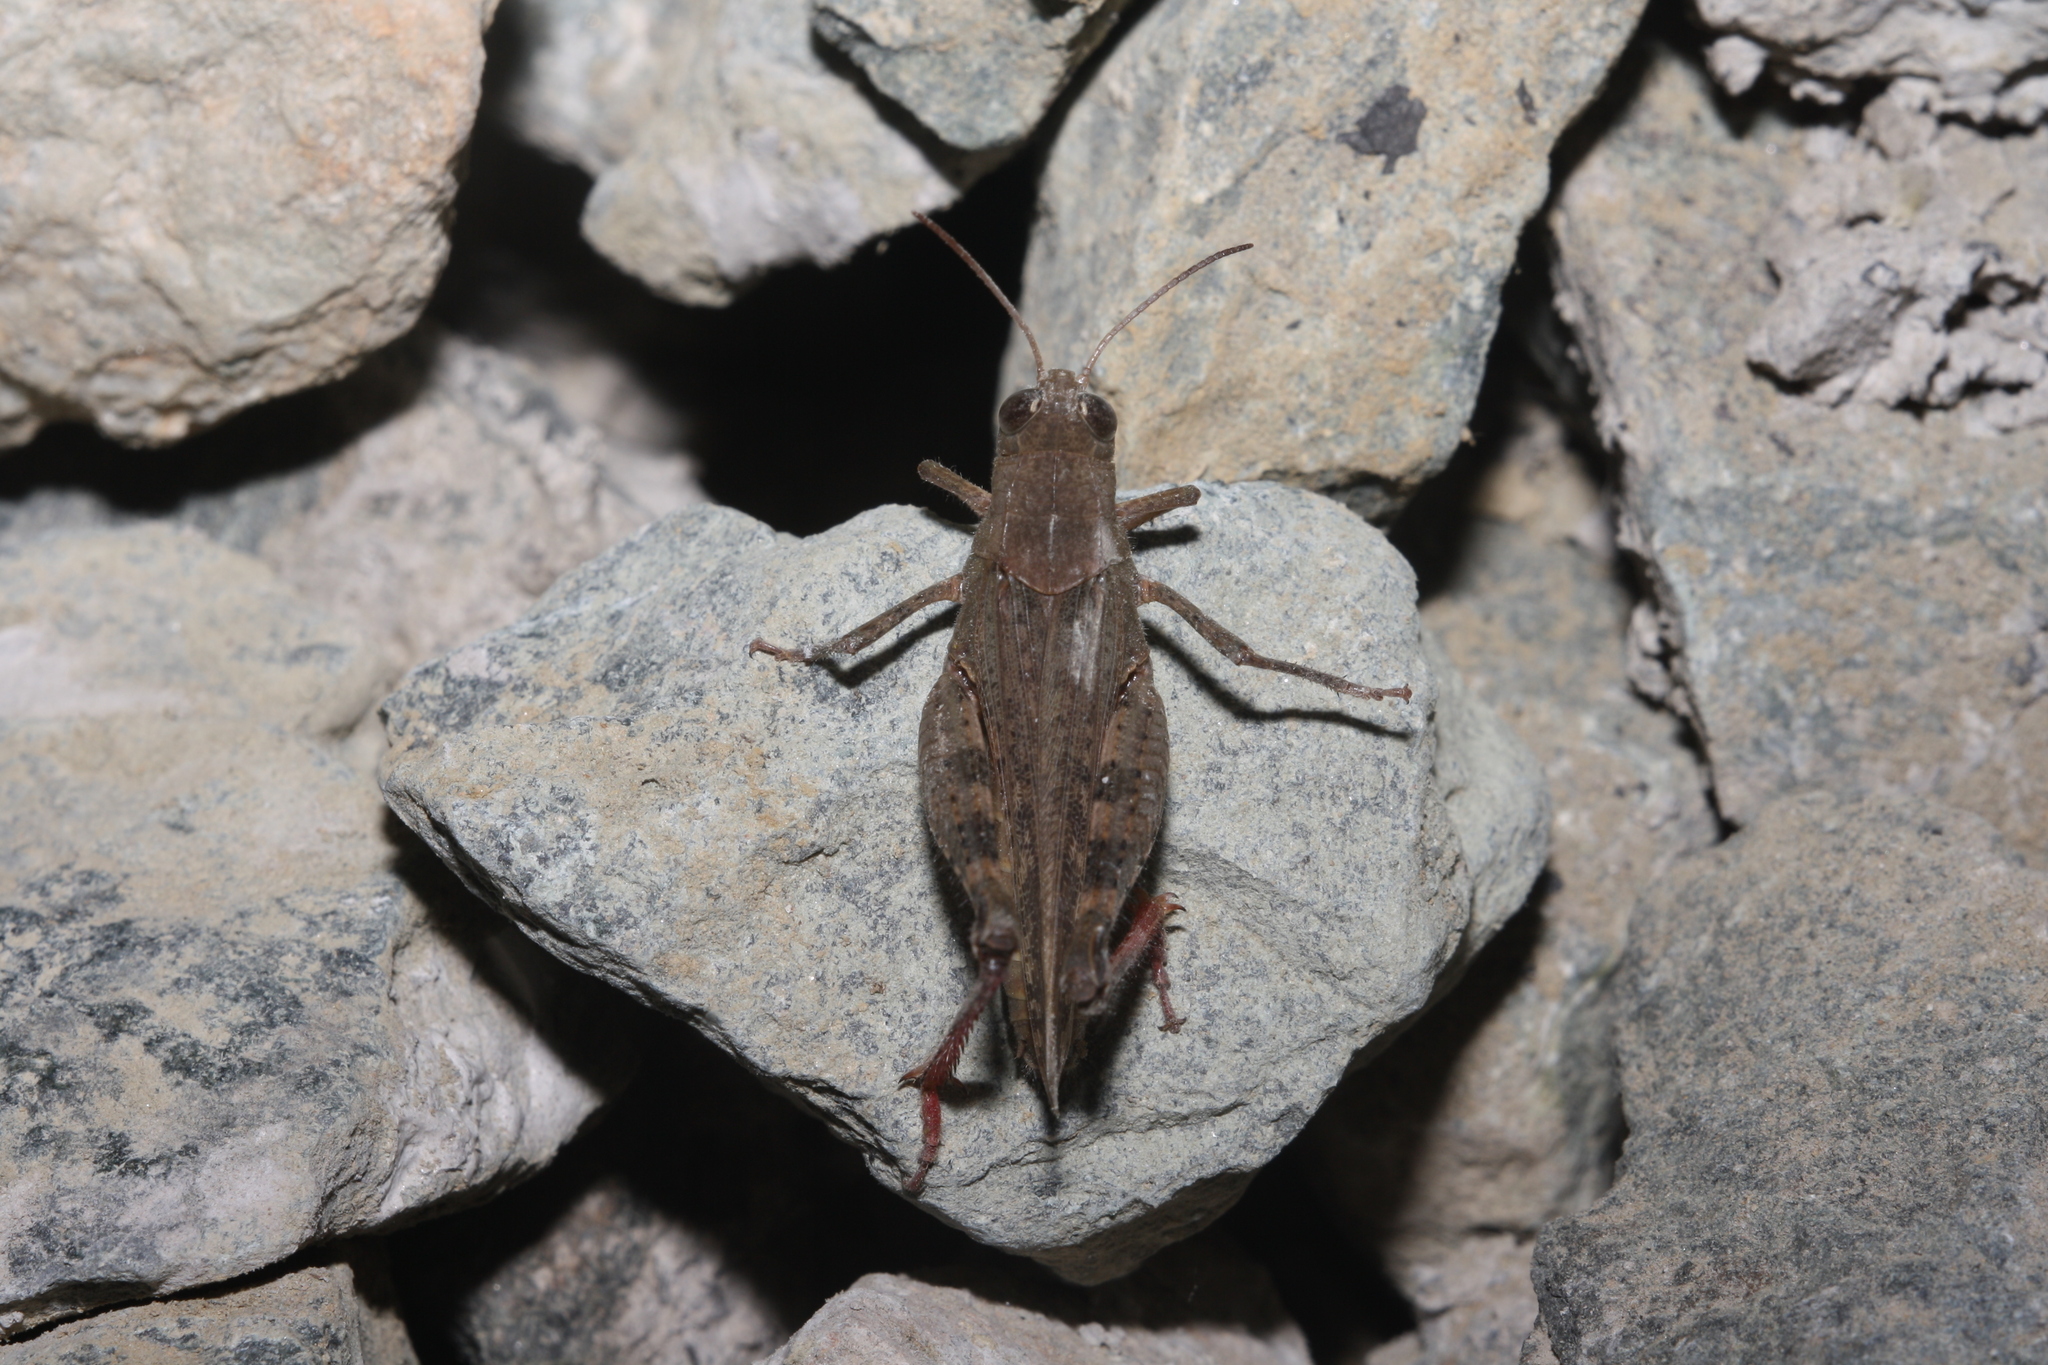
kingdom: Animalia
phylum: Arthropoda
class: Insecta
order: Orthoptera
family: Acrididae
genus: Calliptamus
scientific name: Calliptamus italicus
